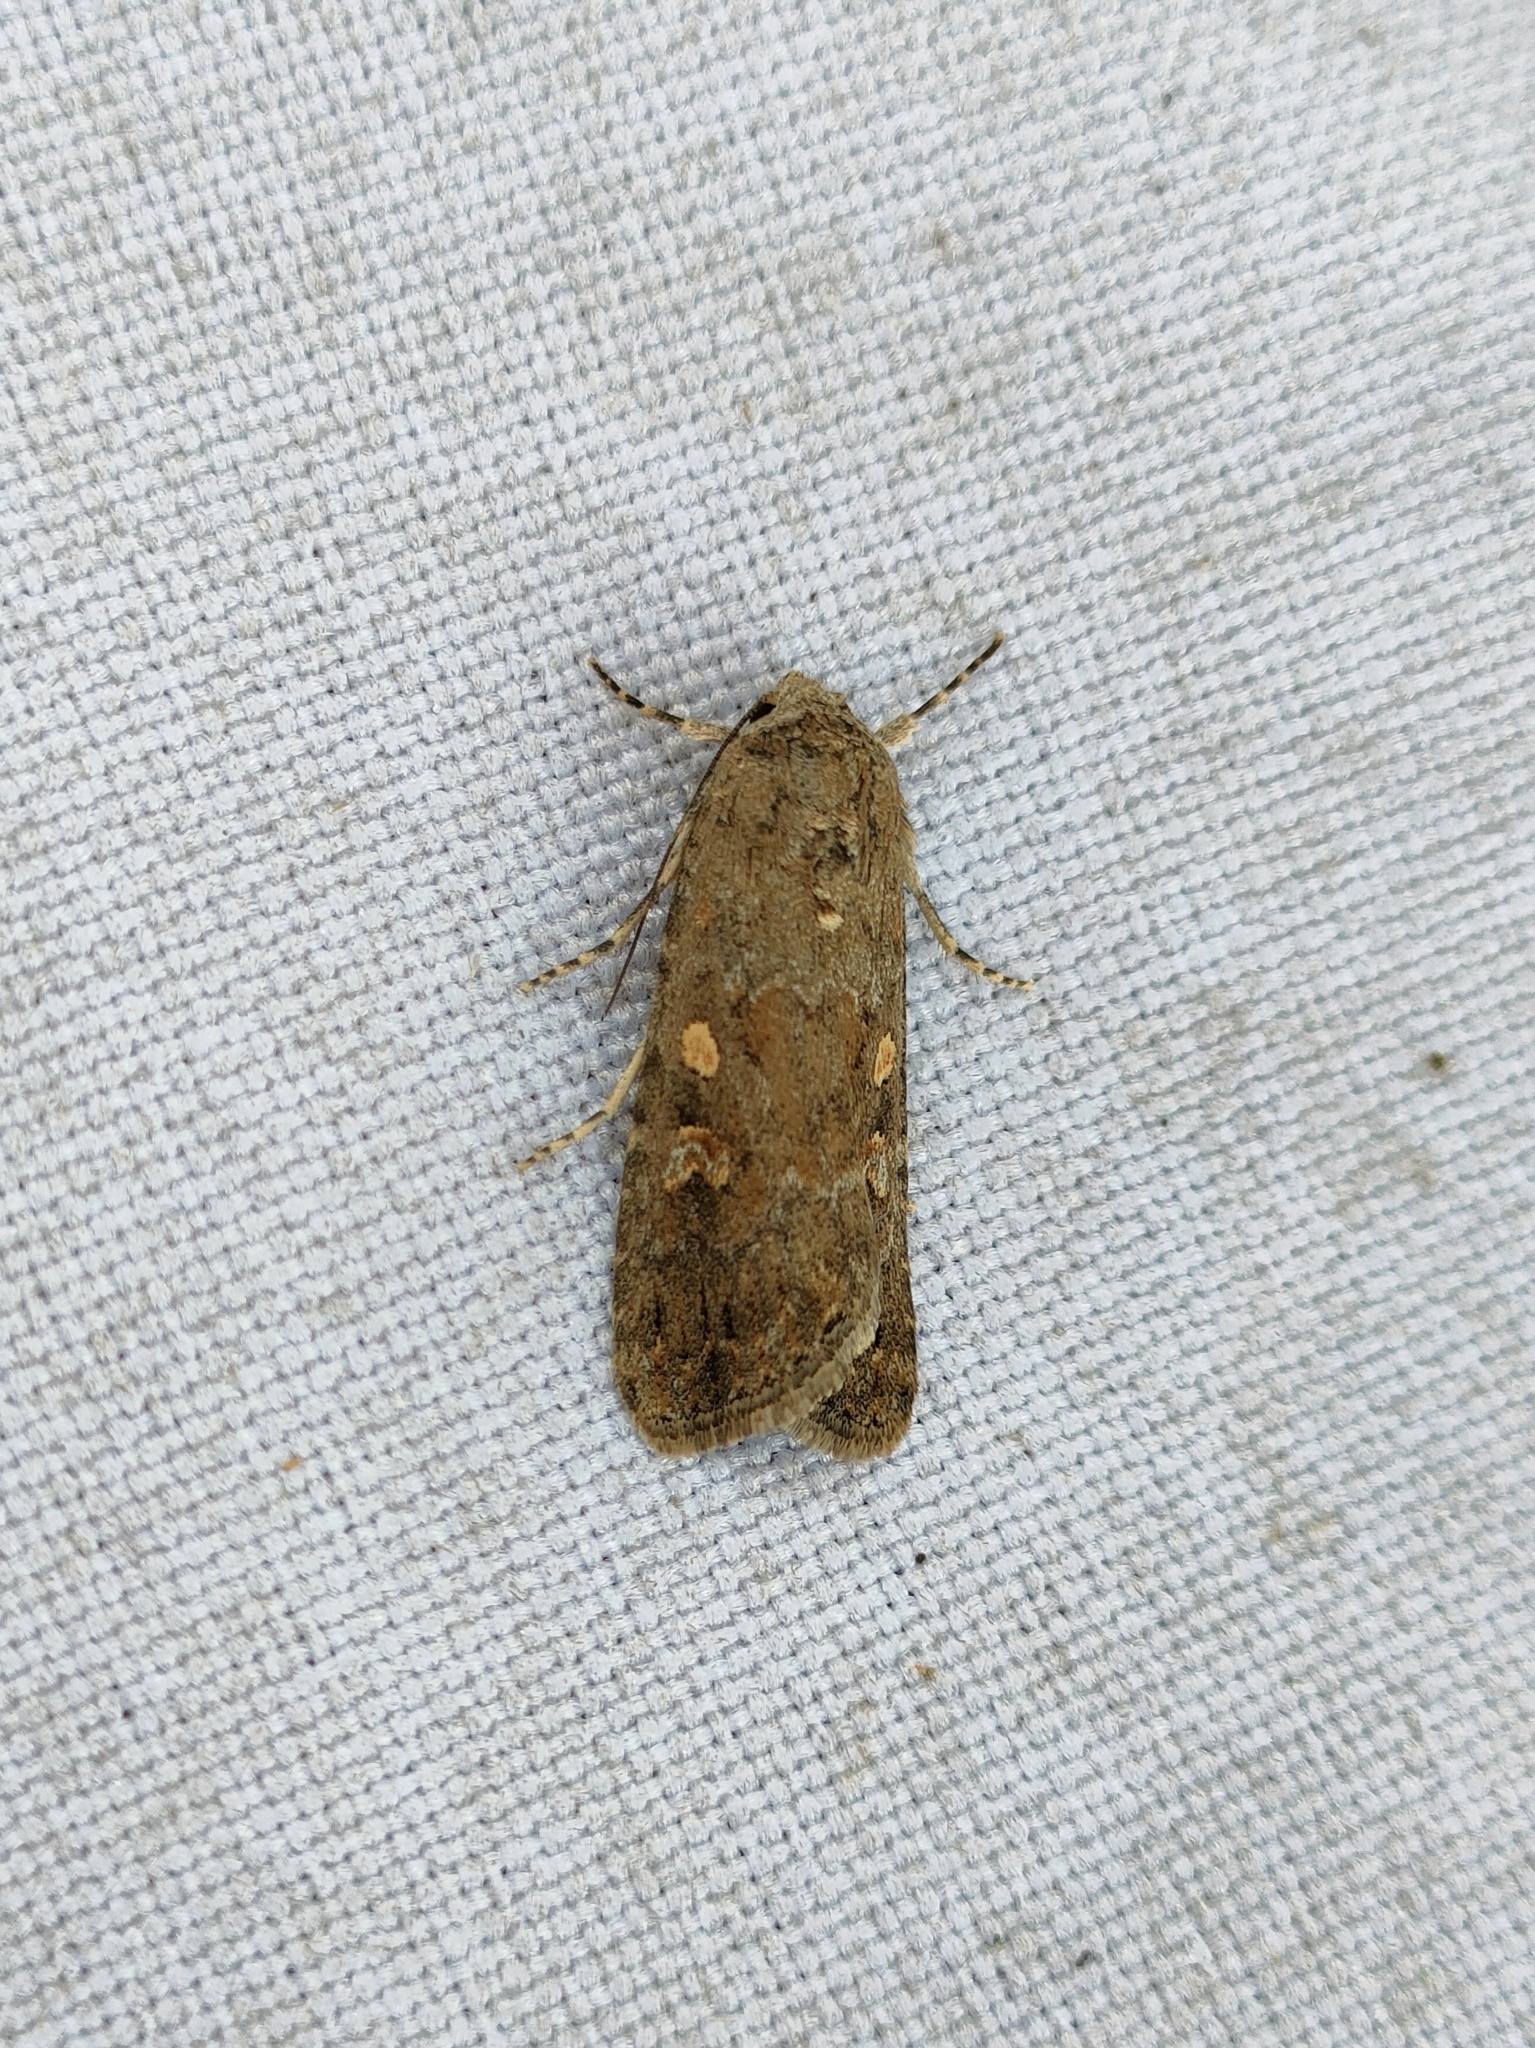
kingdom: Animalia
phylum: Arthropoda
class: Insecta
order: Lepidoptera
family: Noctuidae
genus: Spodoptera
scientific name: Spodoptera exigua
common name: Beet armyworm
